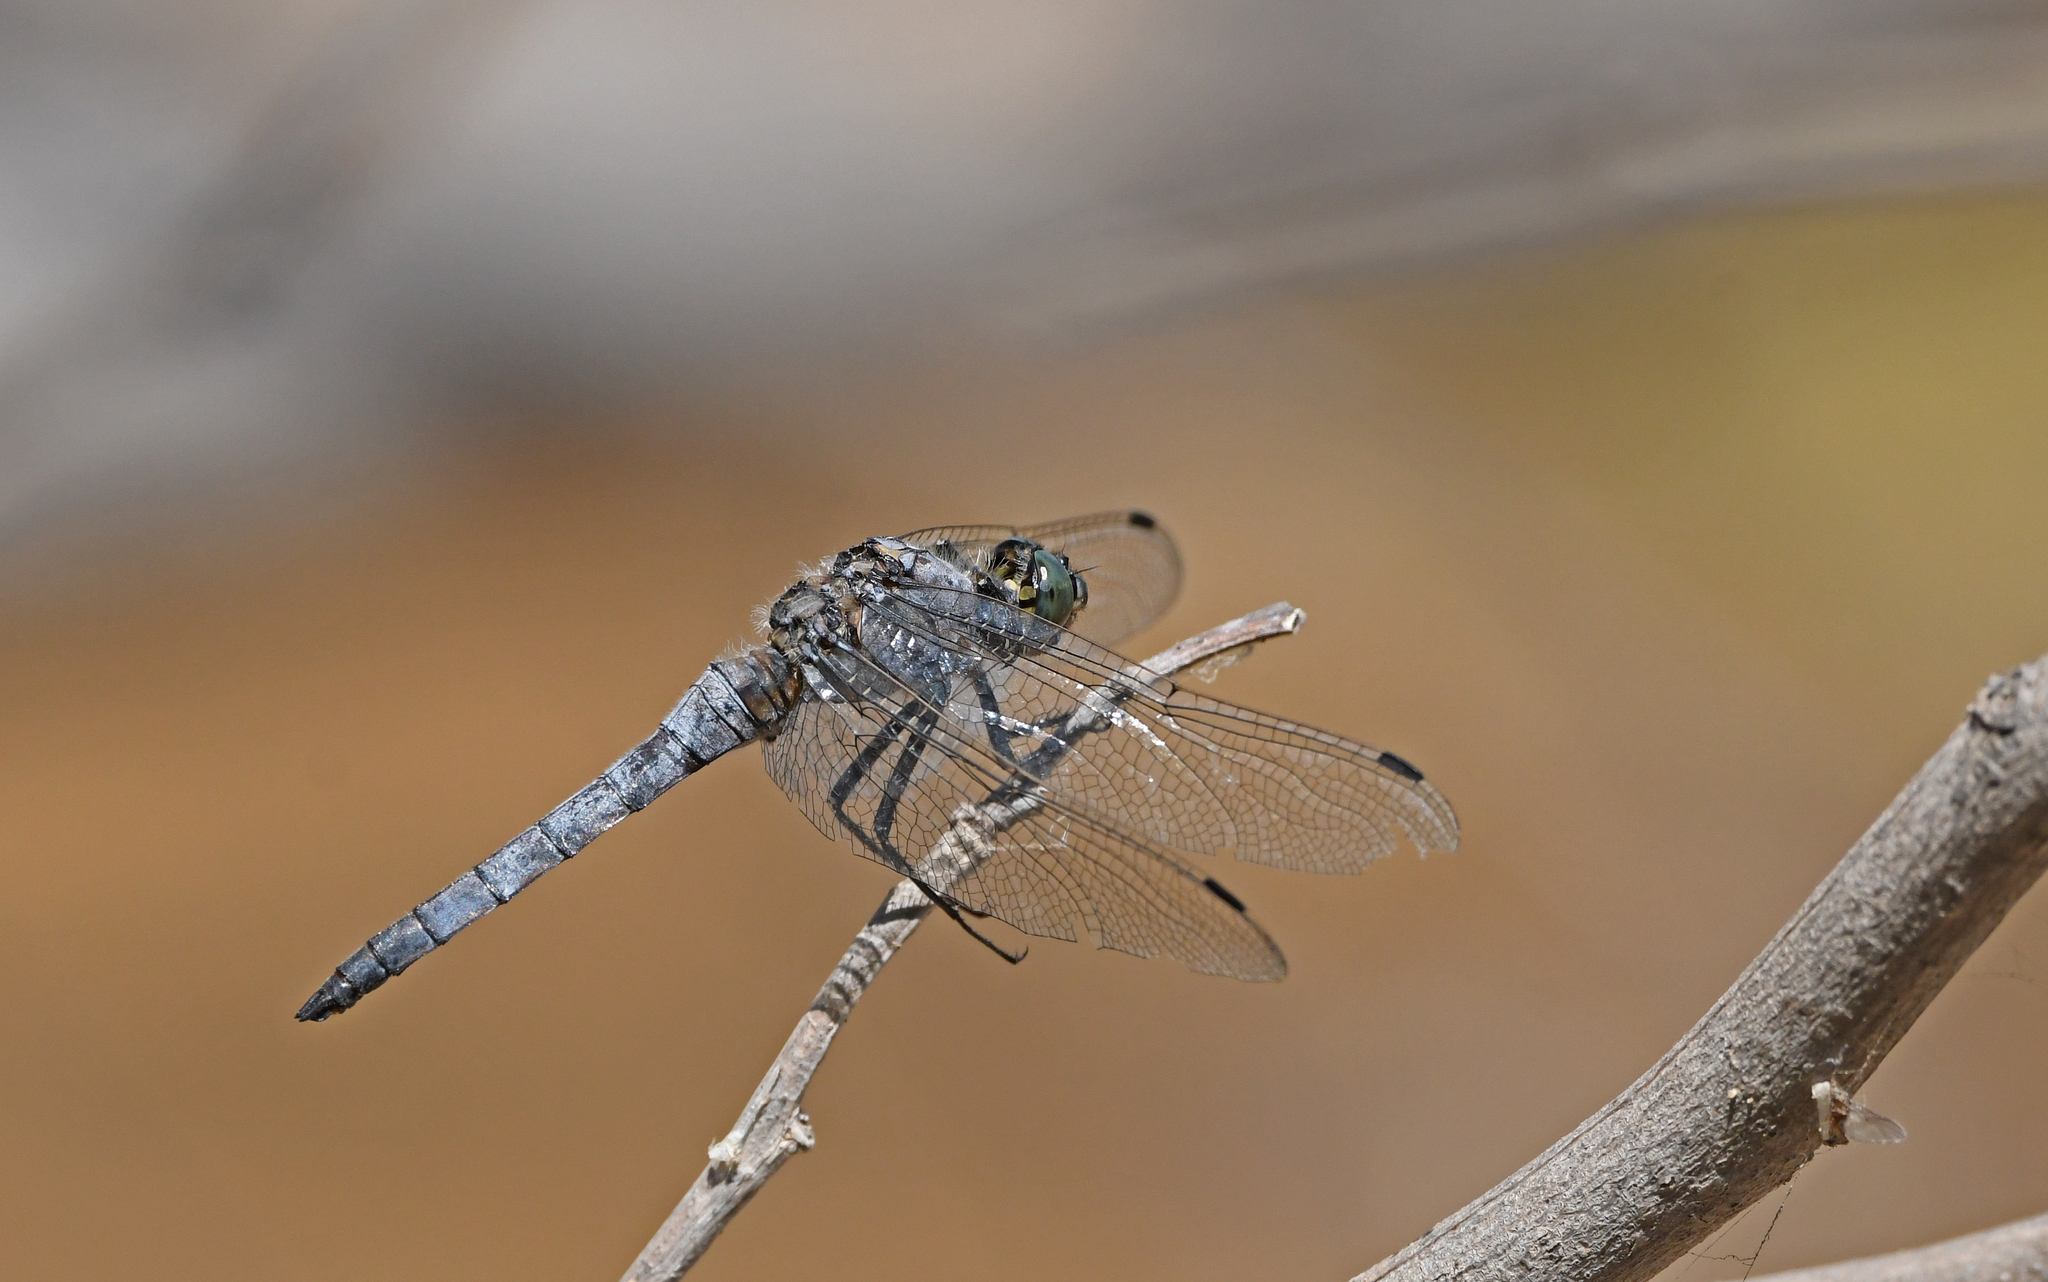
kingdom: Animalia
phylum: Arthropoda
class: Insecta
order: Odonata
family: Libellulidae
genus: Orthetrum
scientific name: Orthetrum cancellatum
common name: Black-tailed skimmer
